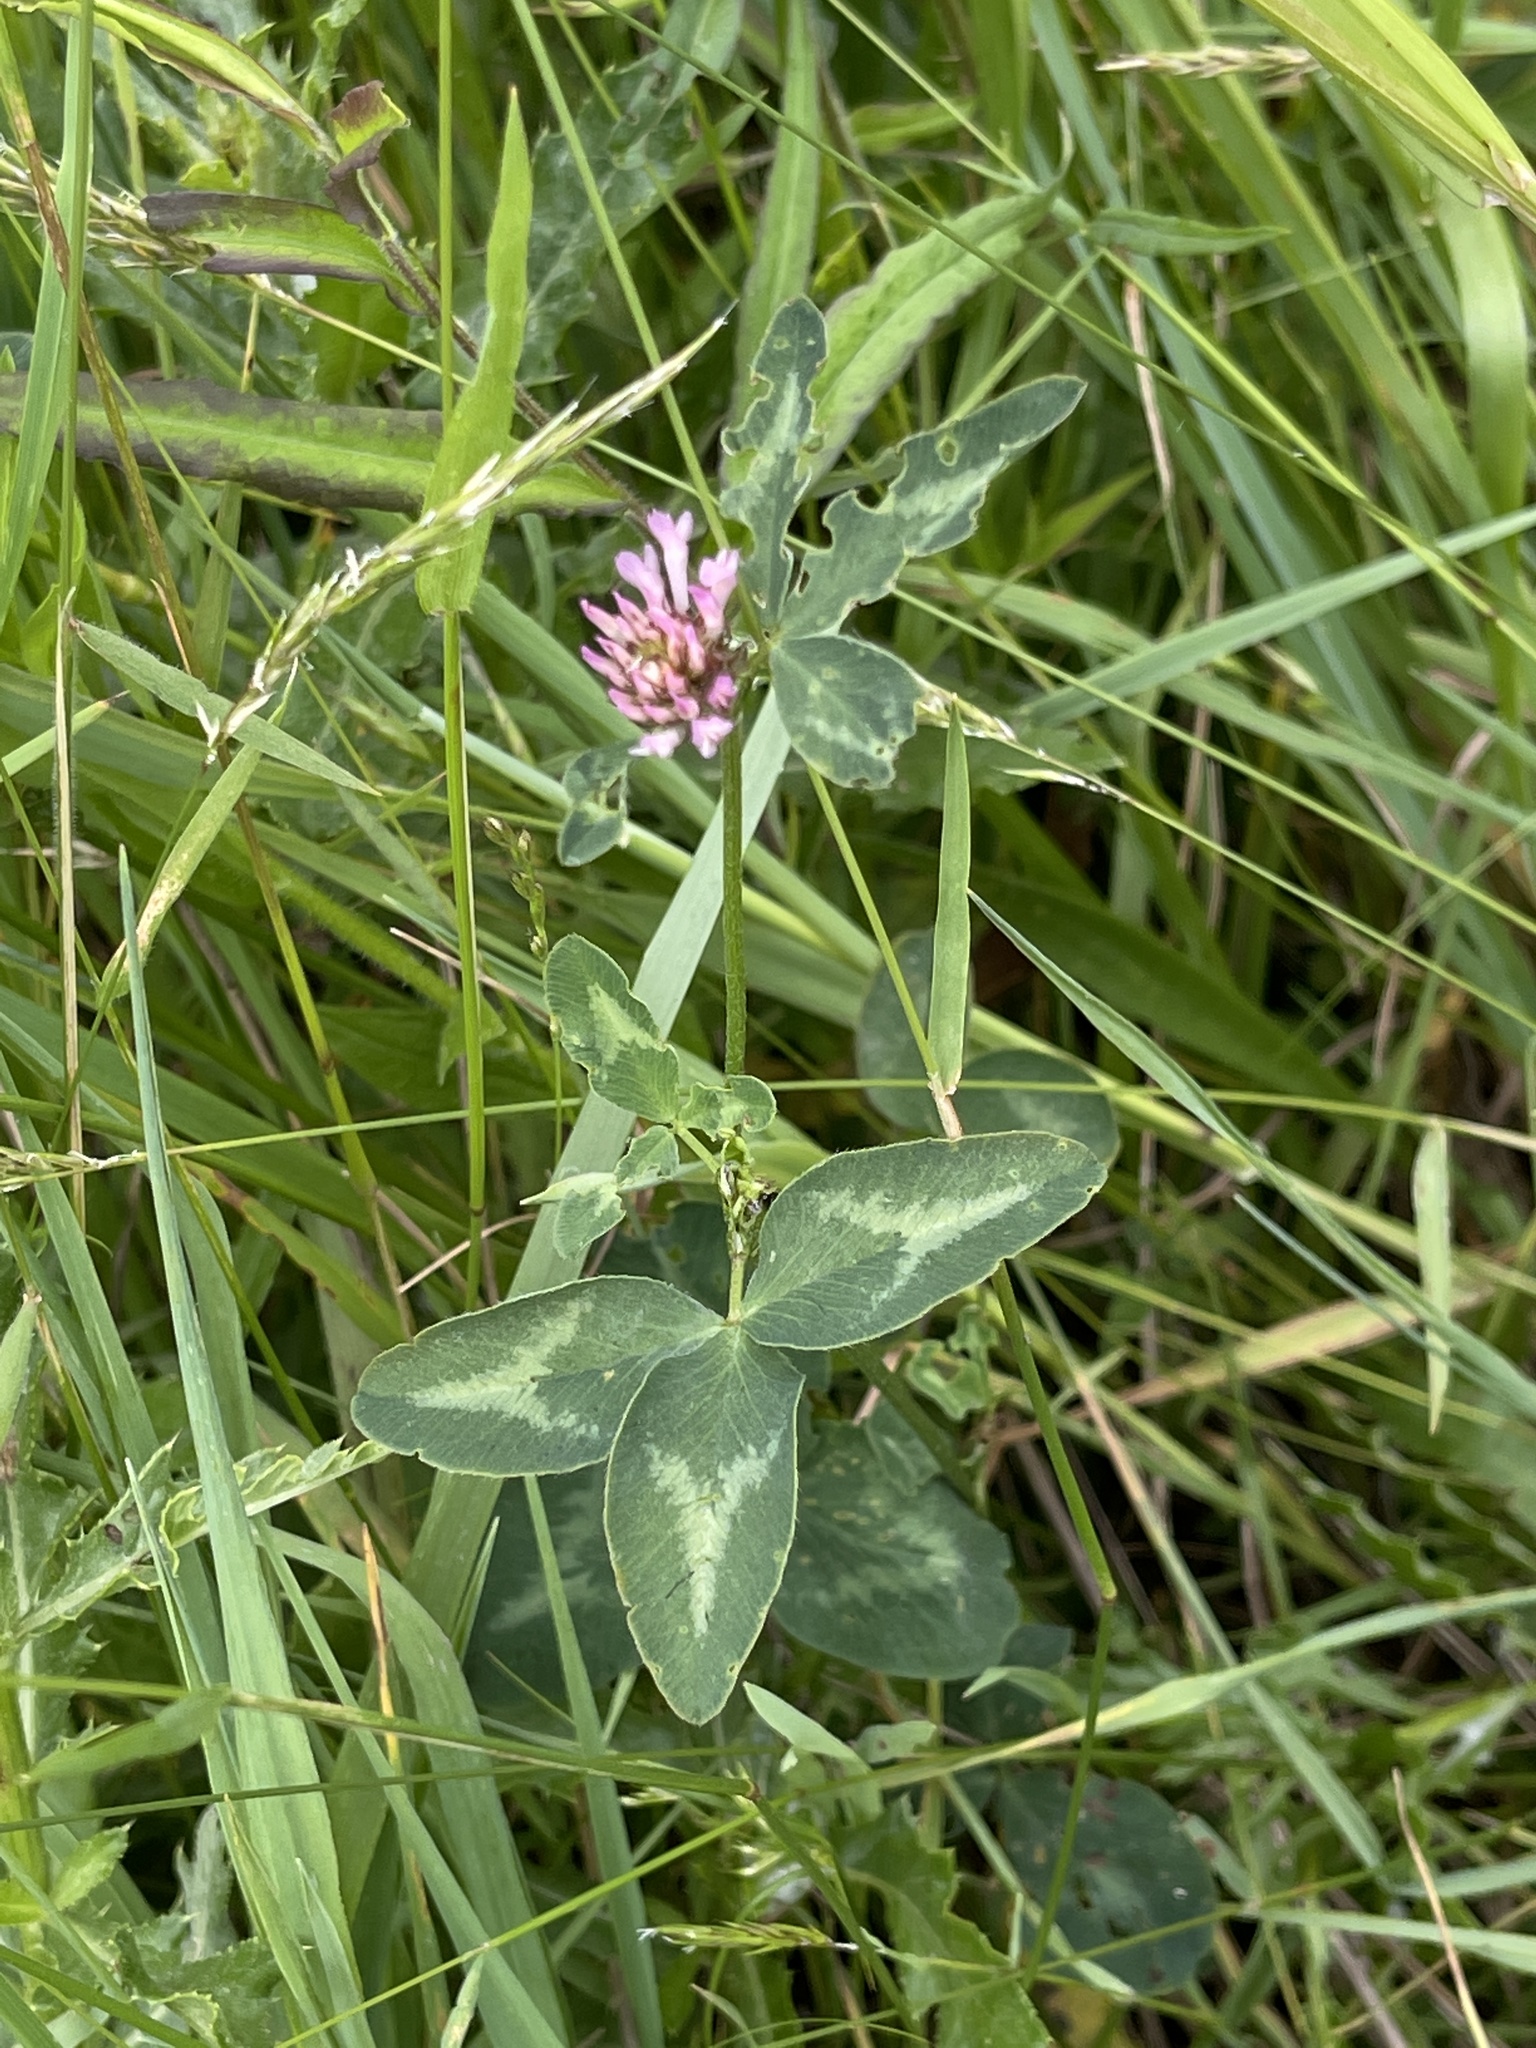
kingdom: Plantae
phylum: Tracheophyta
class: Magnoliopsida
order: Fabales
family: Fabaceae
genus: Trifolium
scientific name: Trifolium pratense
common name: Red clover
